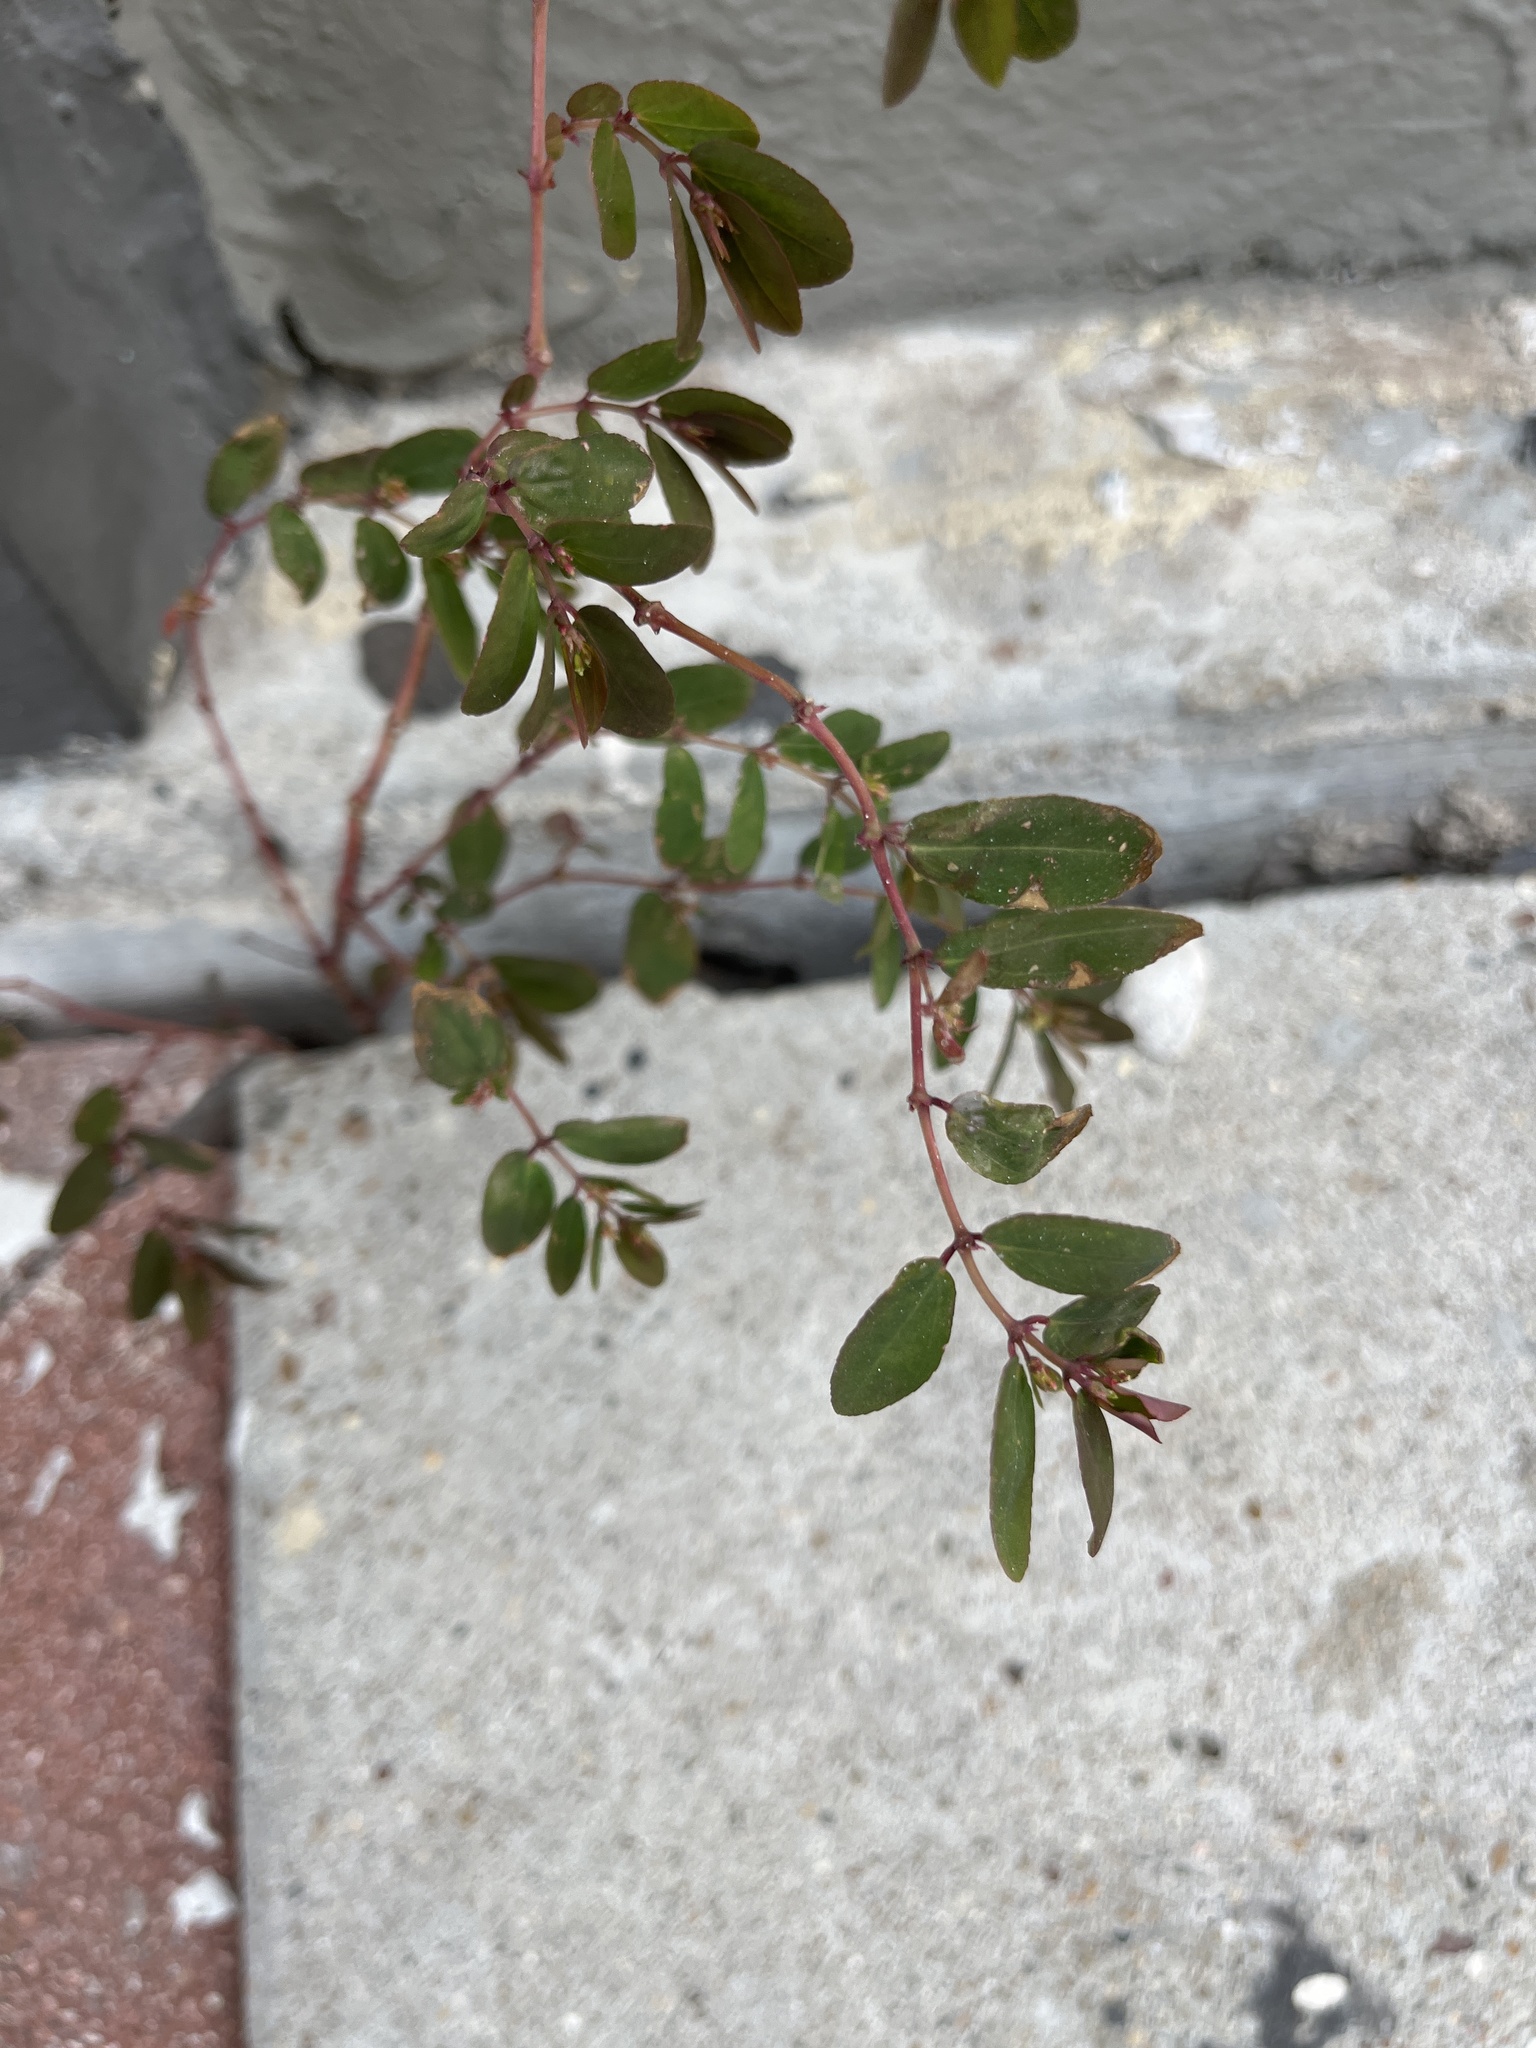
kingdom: Plantae
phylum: Tracheophyta
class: Magnoliopsida
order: Malpighiales
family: Euphorbiaceae
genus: Euphorbia
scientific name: Euphorbia hypericifolia
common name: Graceful sandmat
